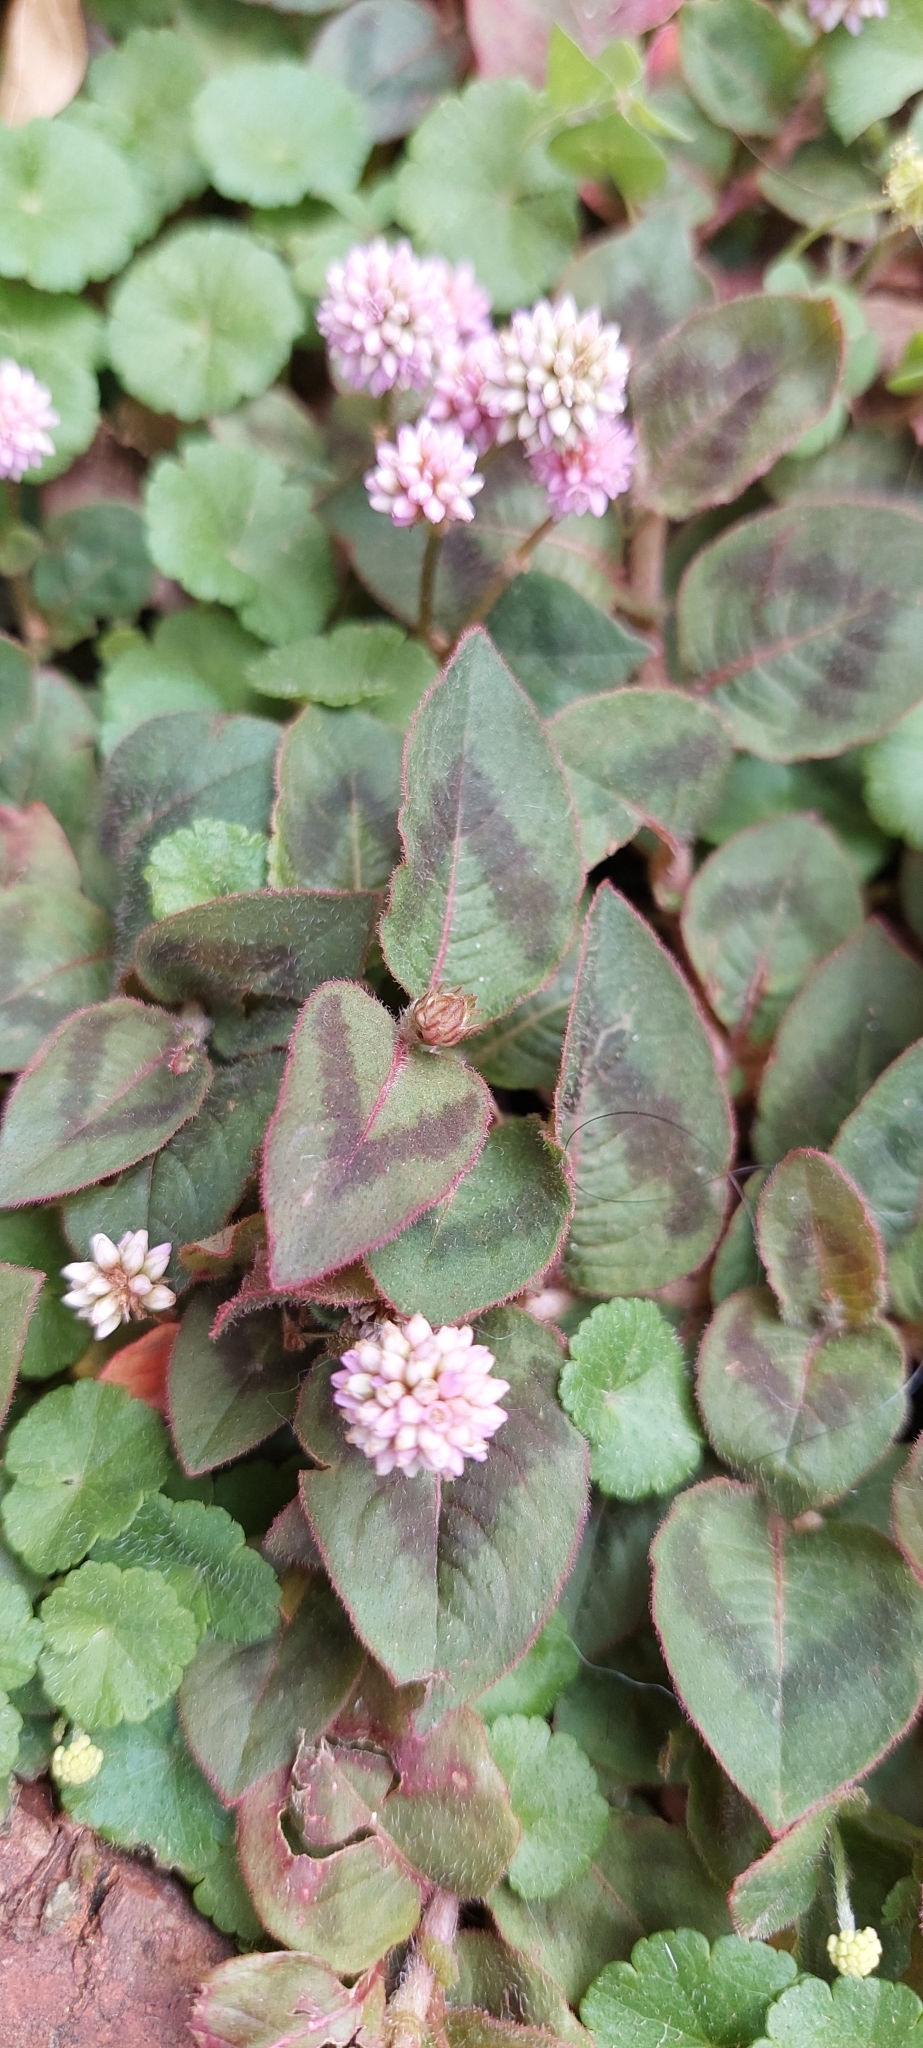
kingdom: Plantae
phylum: Tracheophyta
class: Magnoliopsida
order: Caryophyllales
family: Polygonaceae
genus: Persicaria
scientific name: Persicaria capitata
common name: Pinkhead smartweed
